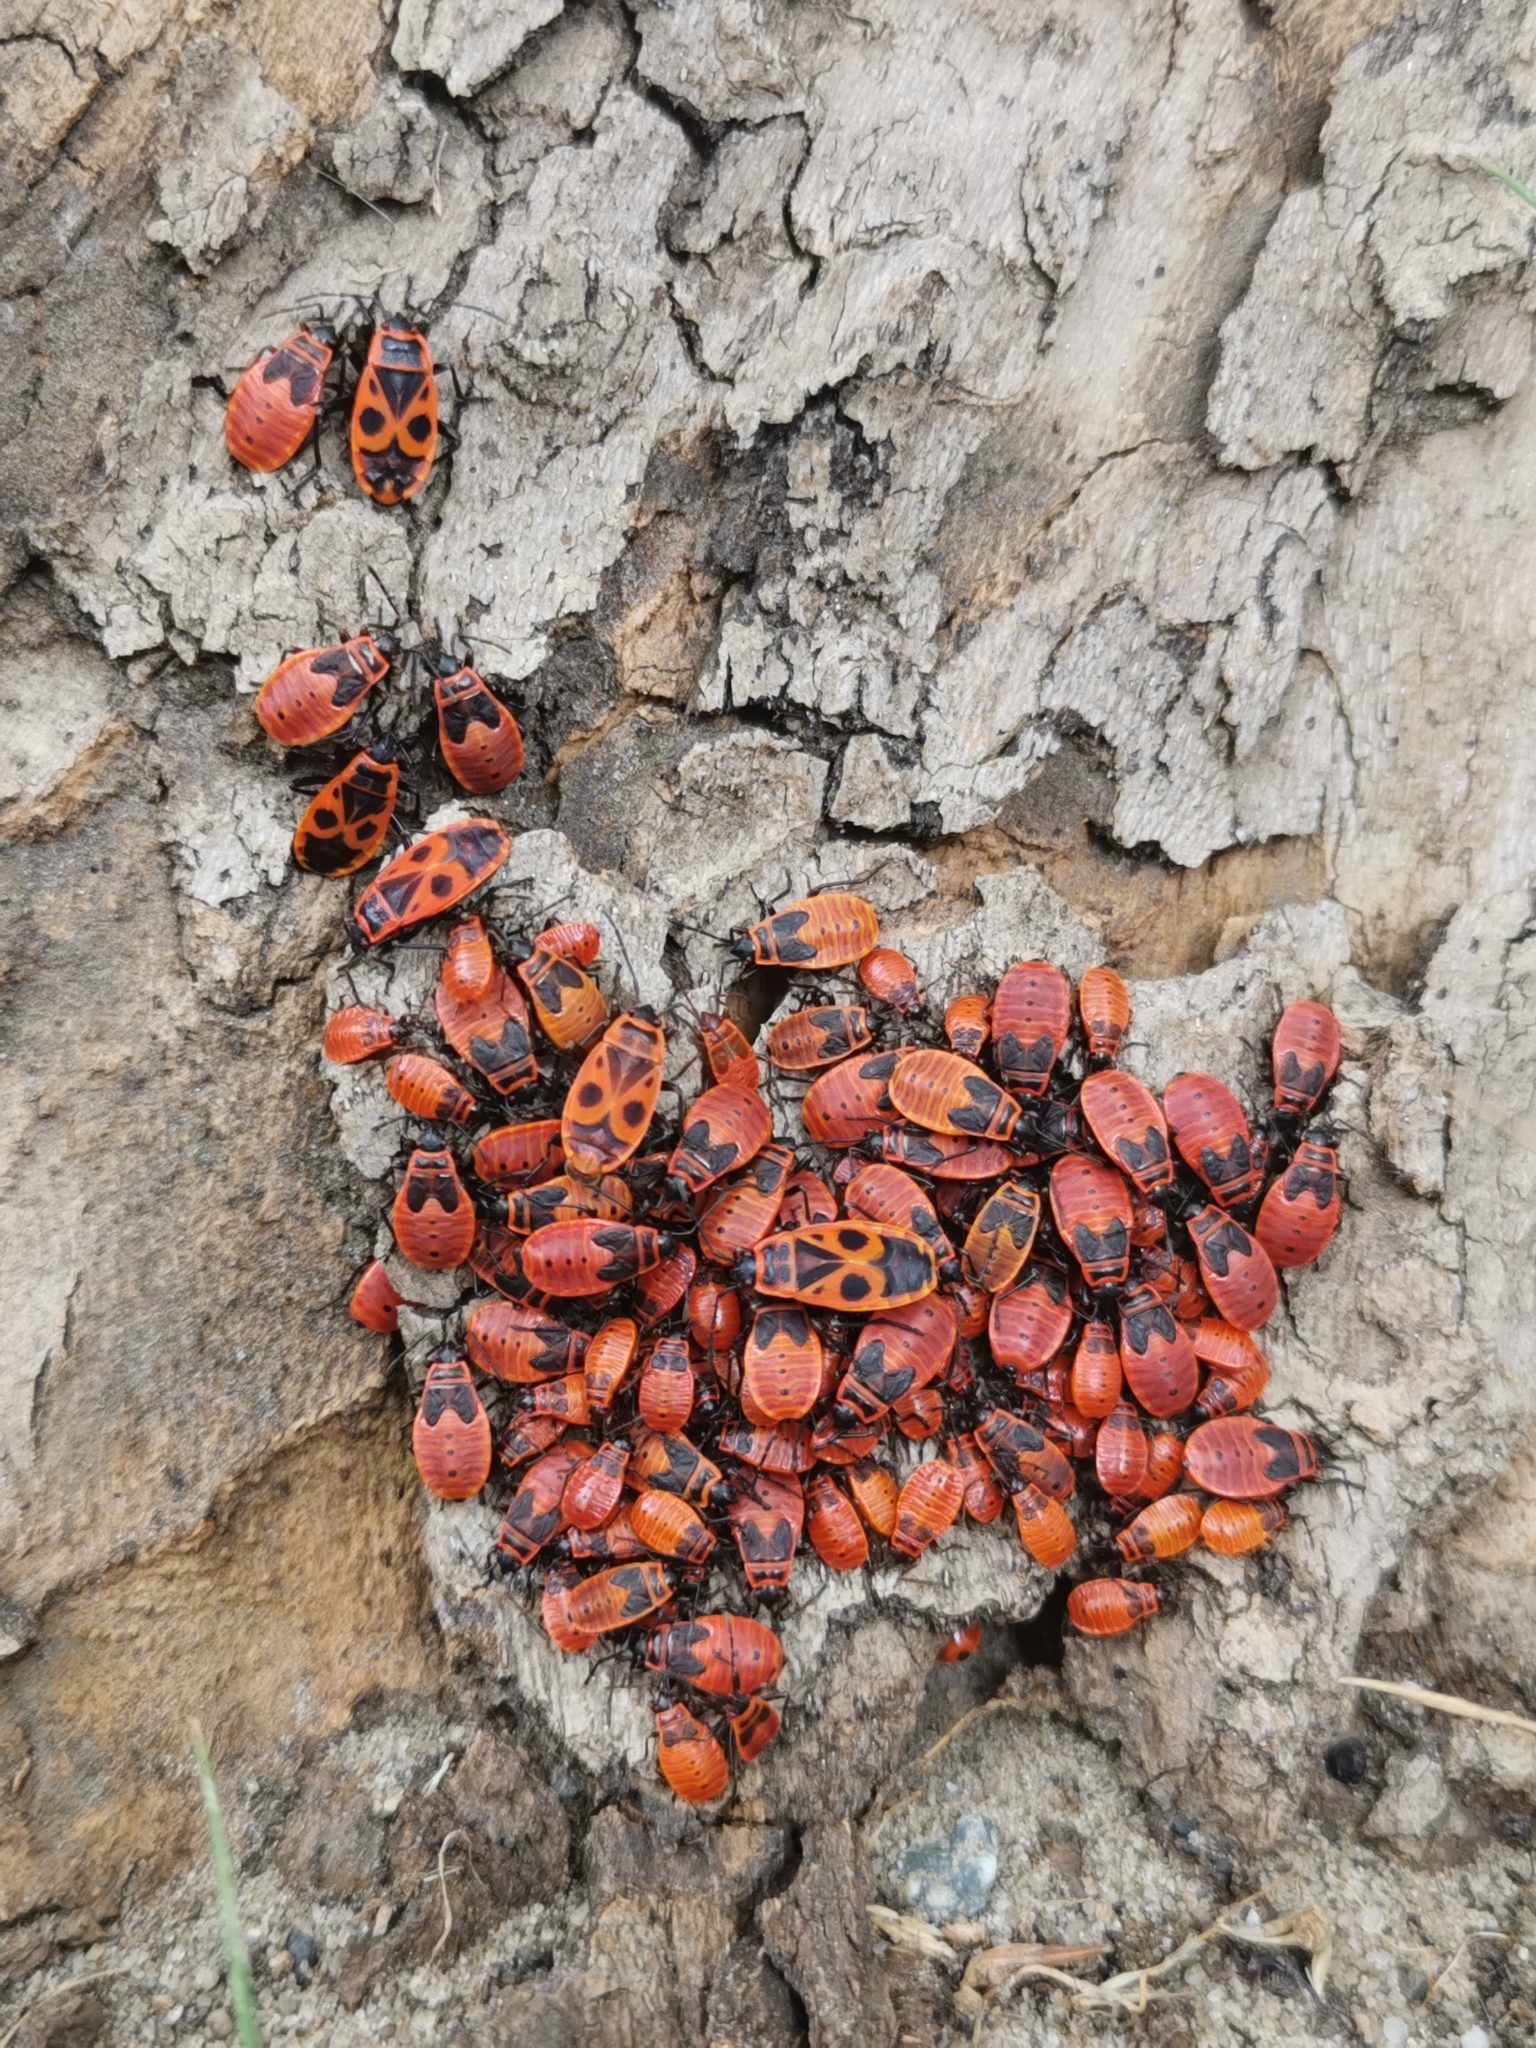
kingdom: Animalia
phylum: Arthropoda
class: Insecta
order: Hemiptera
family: Pyrrhocoridae
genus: Pyrrhocoris
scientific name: Pyrrhocoris apterus
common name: Firebug
